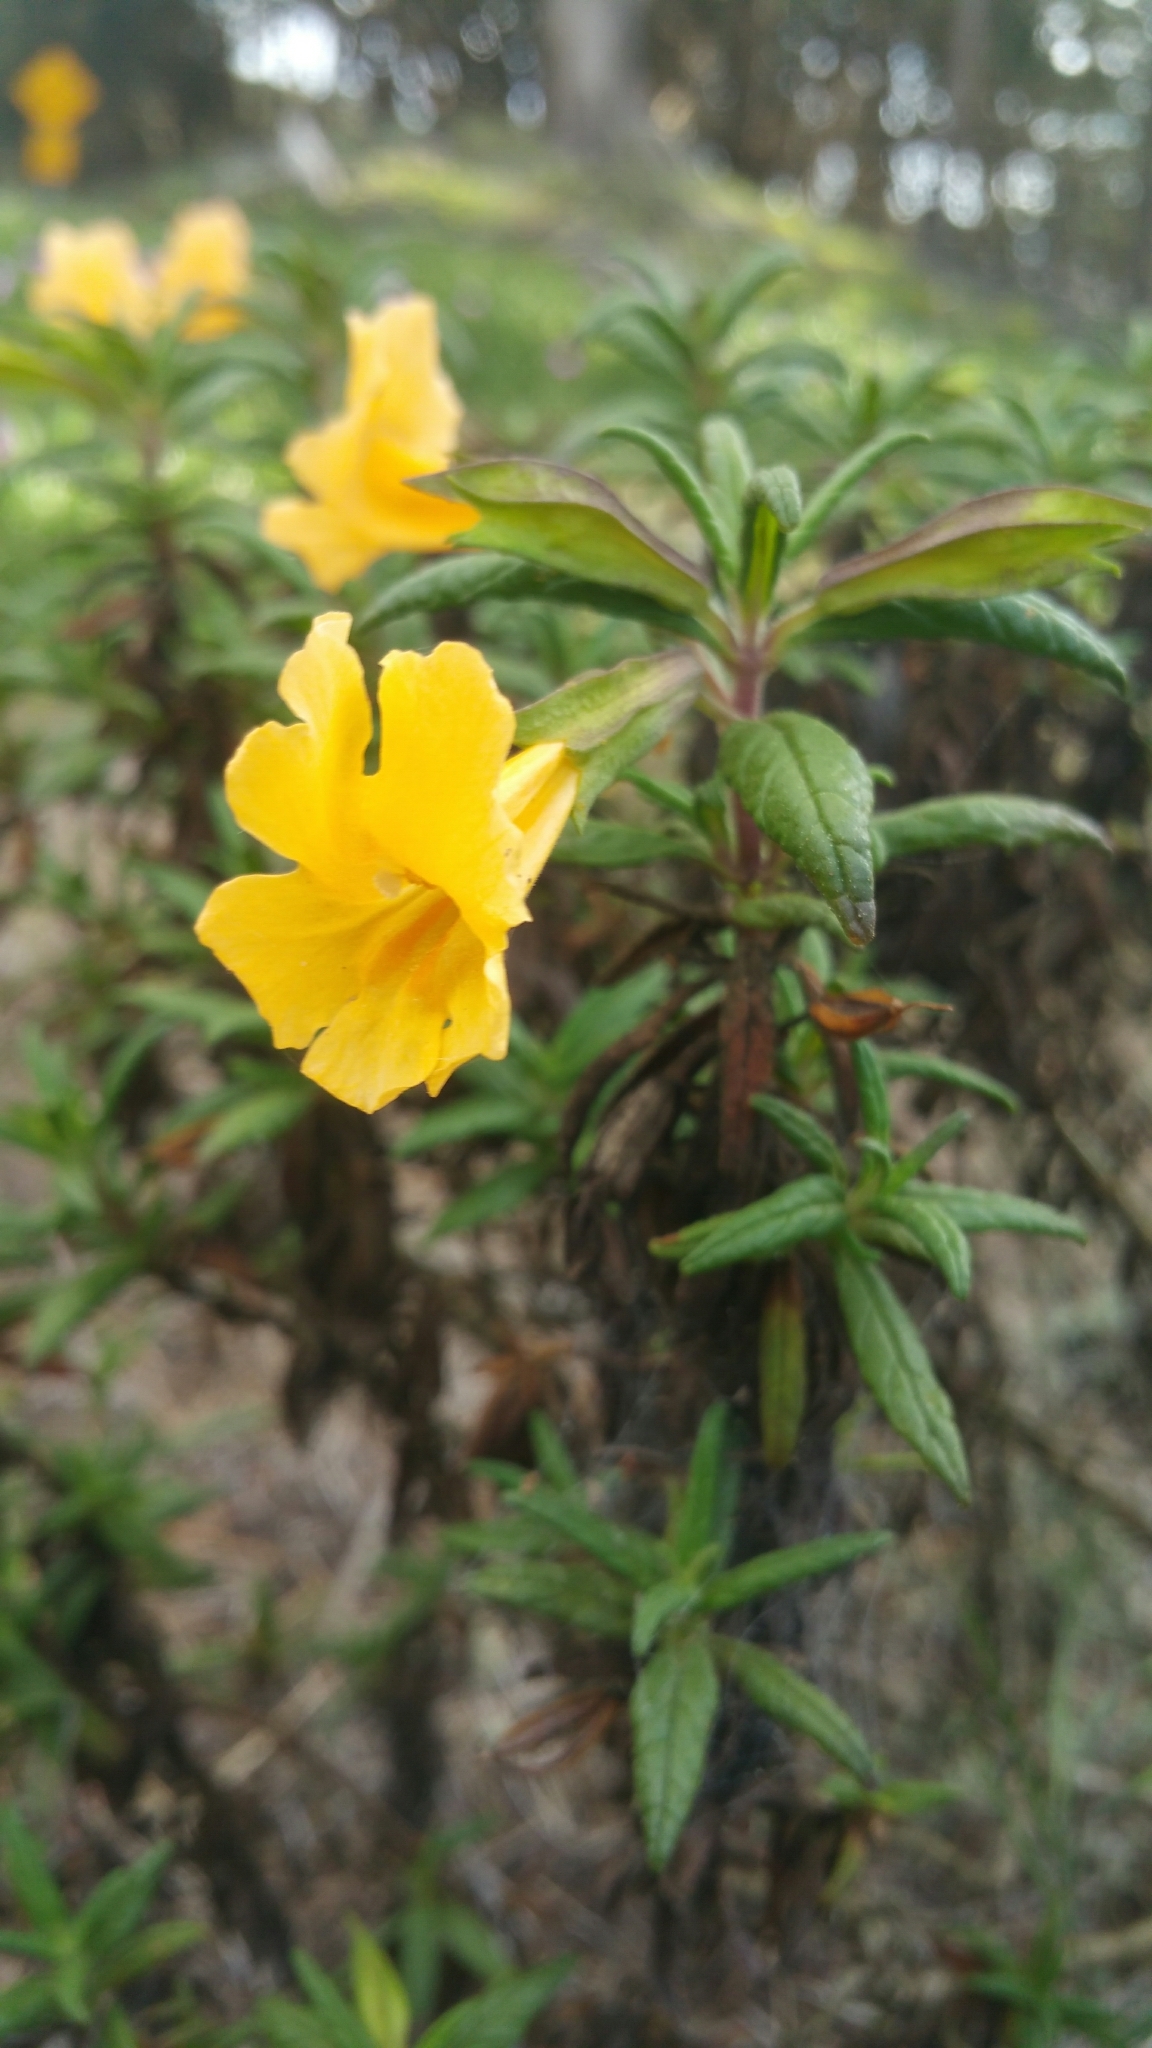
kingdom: Plantae
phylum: Tracheophyta
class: Magnoliopsida
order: Lamiales
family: Phrymaceae
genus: Diplacus
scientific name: Diplacus aurantiacus
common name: Bush monkey-flower
